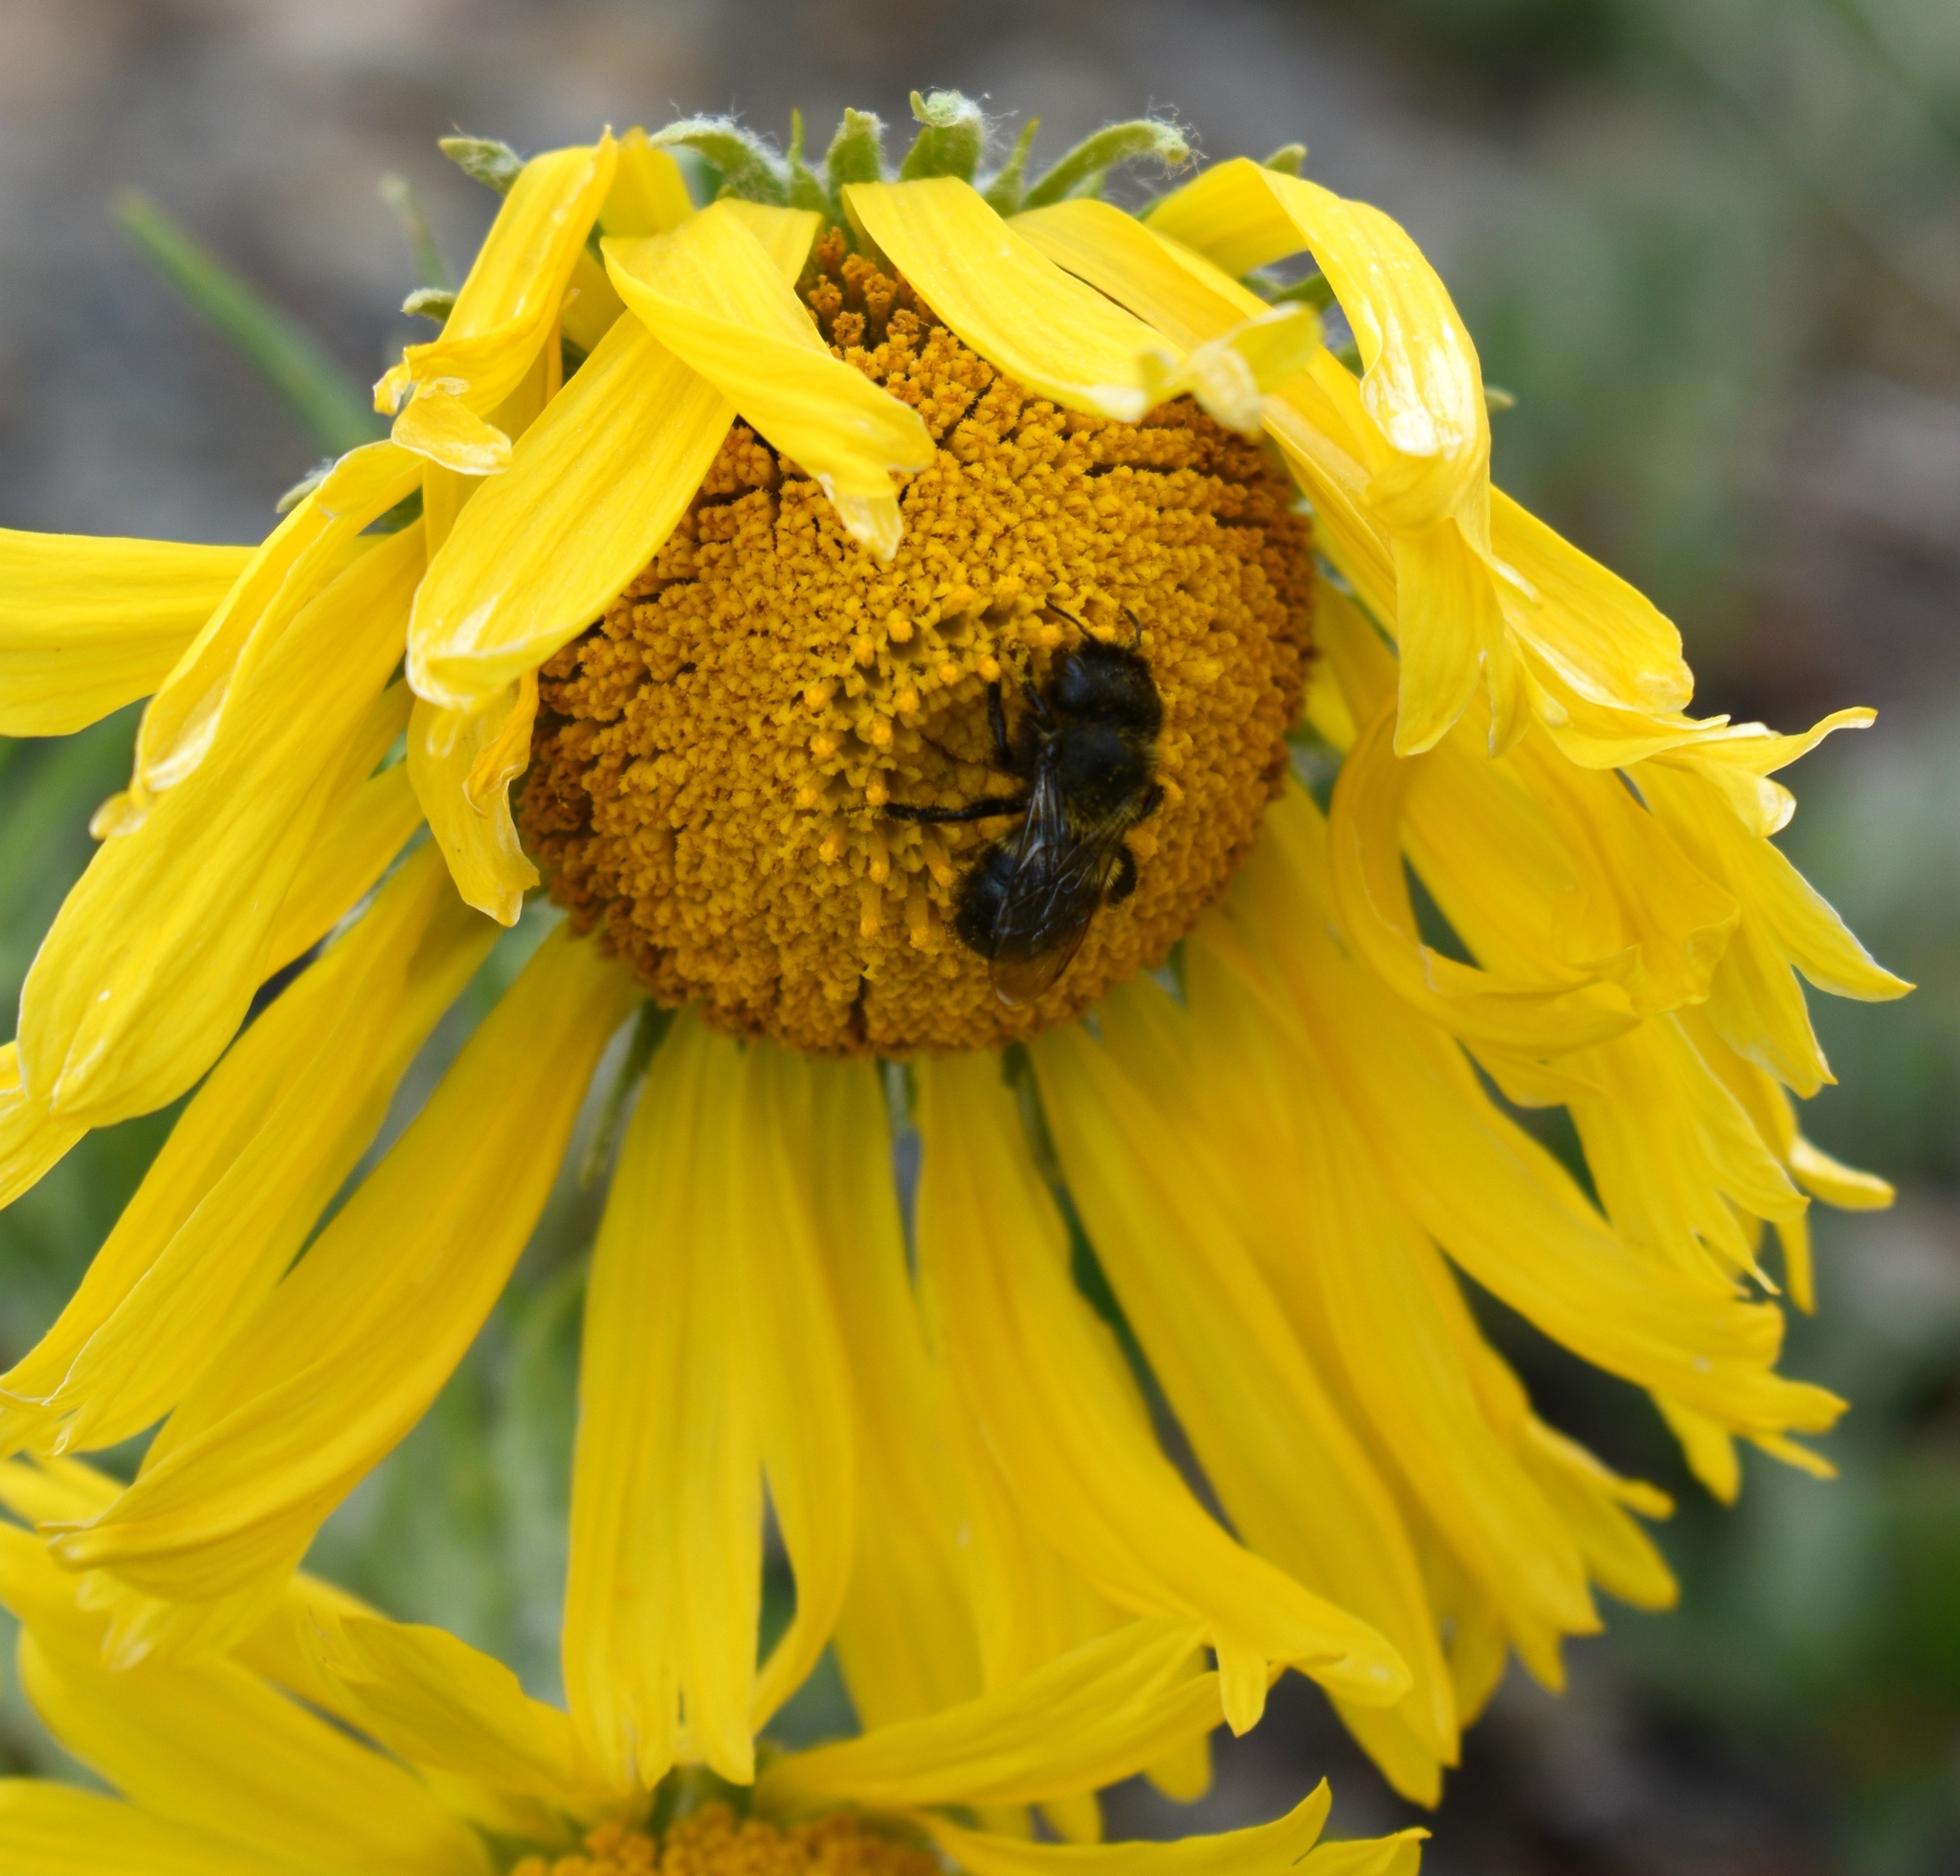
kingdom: Animalia
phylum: Arthropoda
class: Insecta
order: Hymenoptera
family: Megachilidae
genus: Osmia
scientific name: Osmia
